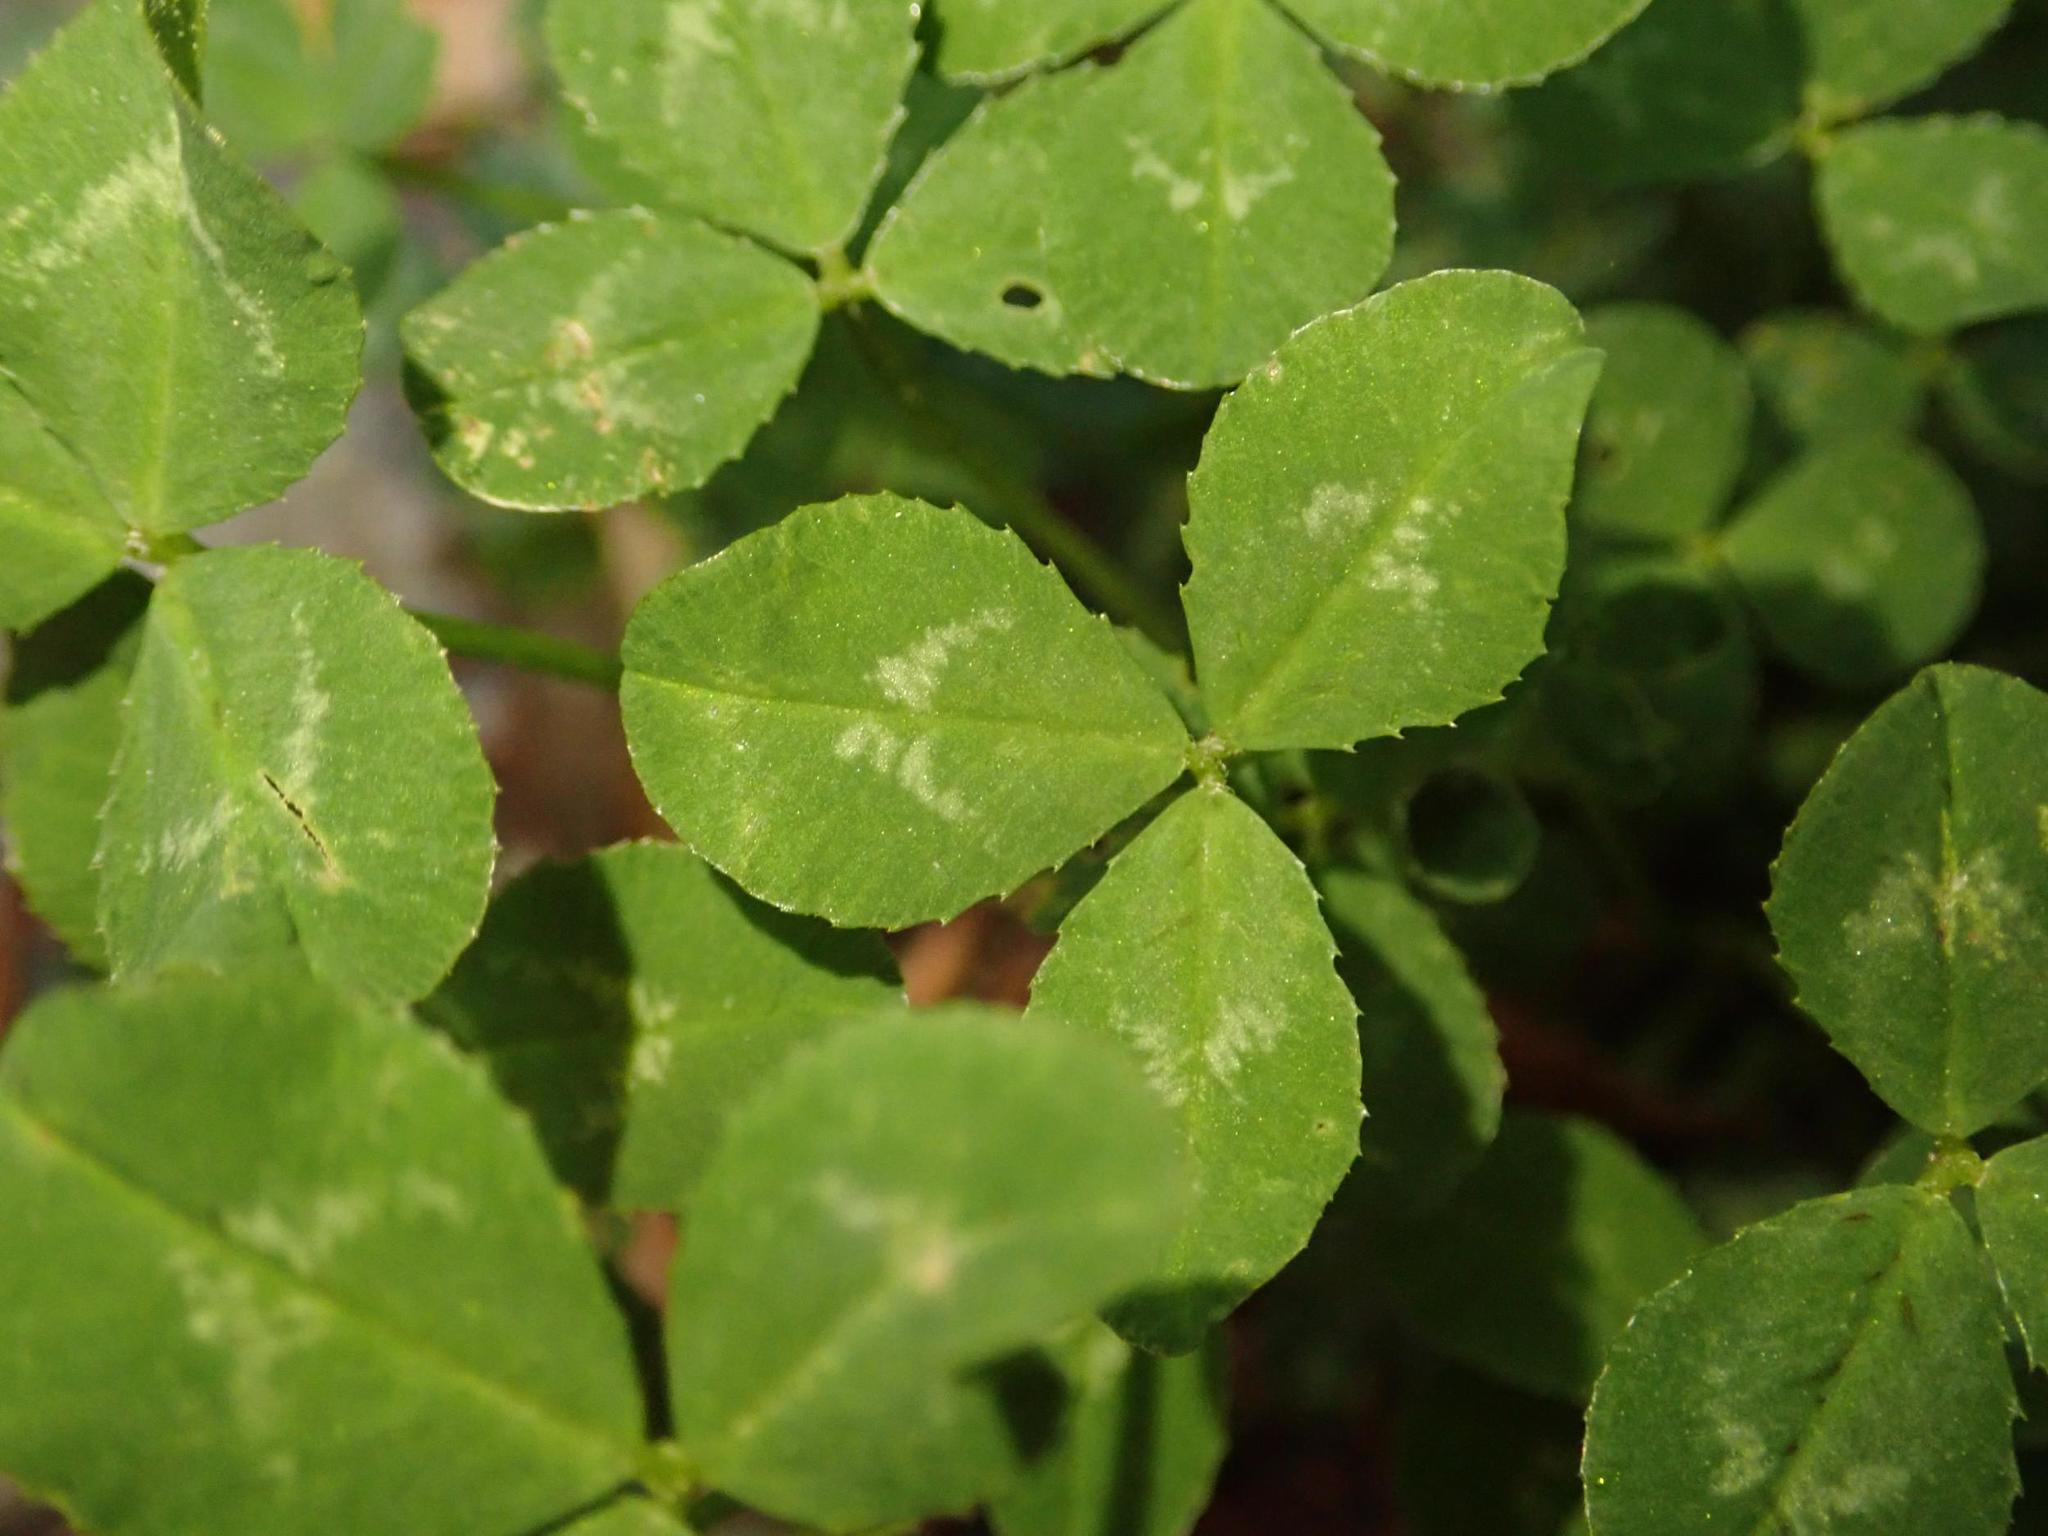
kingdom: Plantae
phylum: Tracheophyta
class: Magnoliopsida
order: Fabales
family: Fabaceae
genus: Trifolium
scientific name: Trifolium repens
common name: White clover
